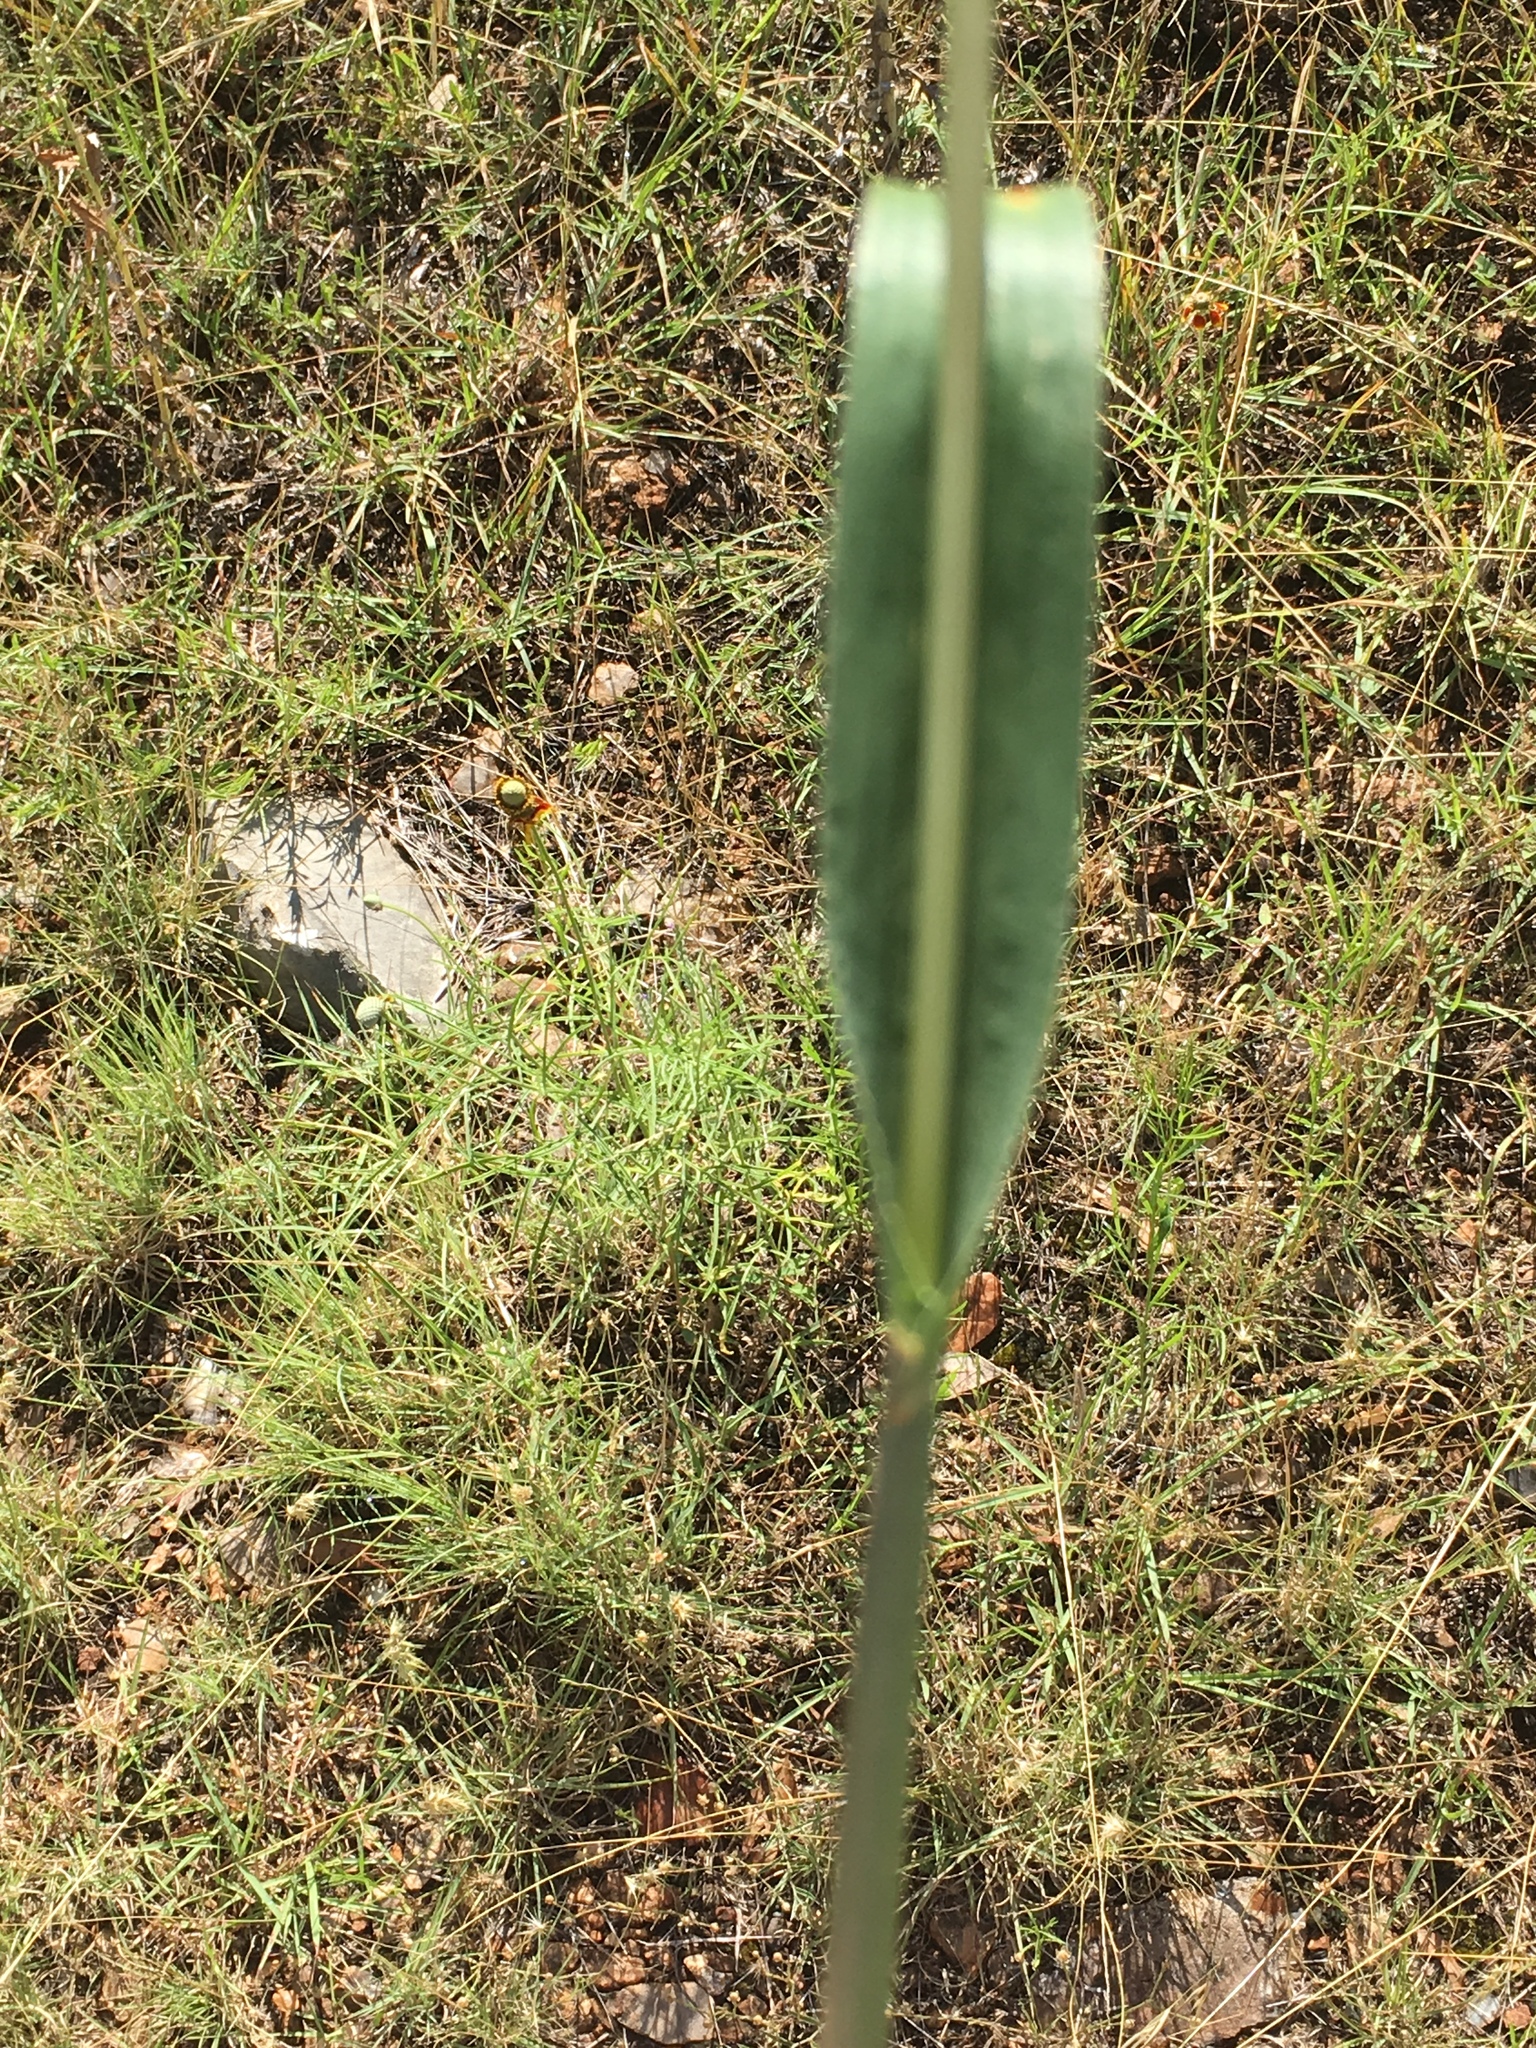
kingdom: Plantae
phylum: Tracheophyta
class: Liliopsida
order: Poales
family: Poaceae
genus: Tripsacum
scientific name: Tripsacum dactyloides
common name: Buffalo-grass
